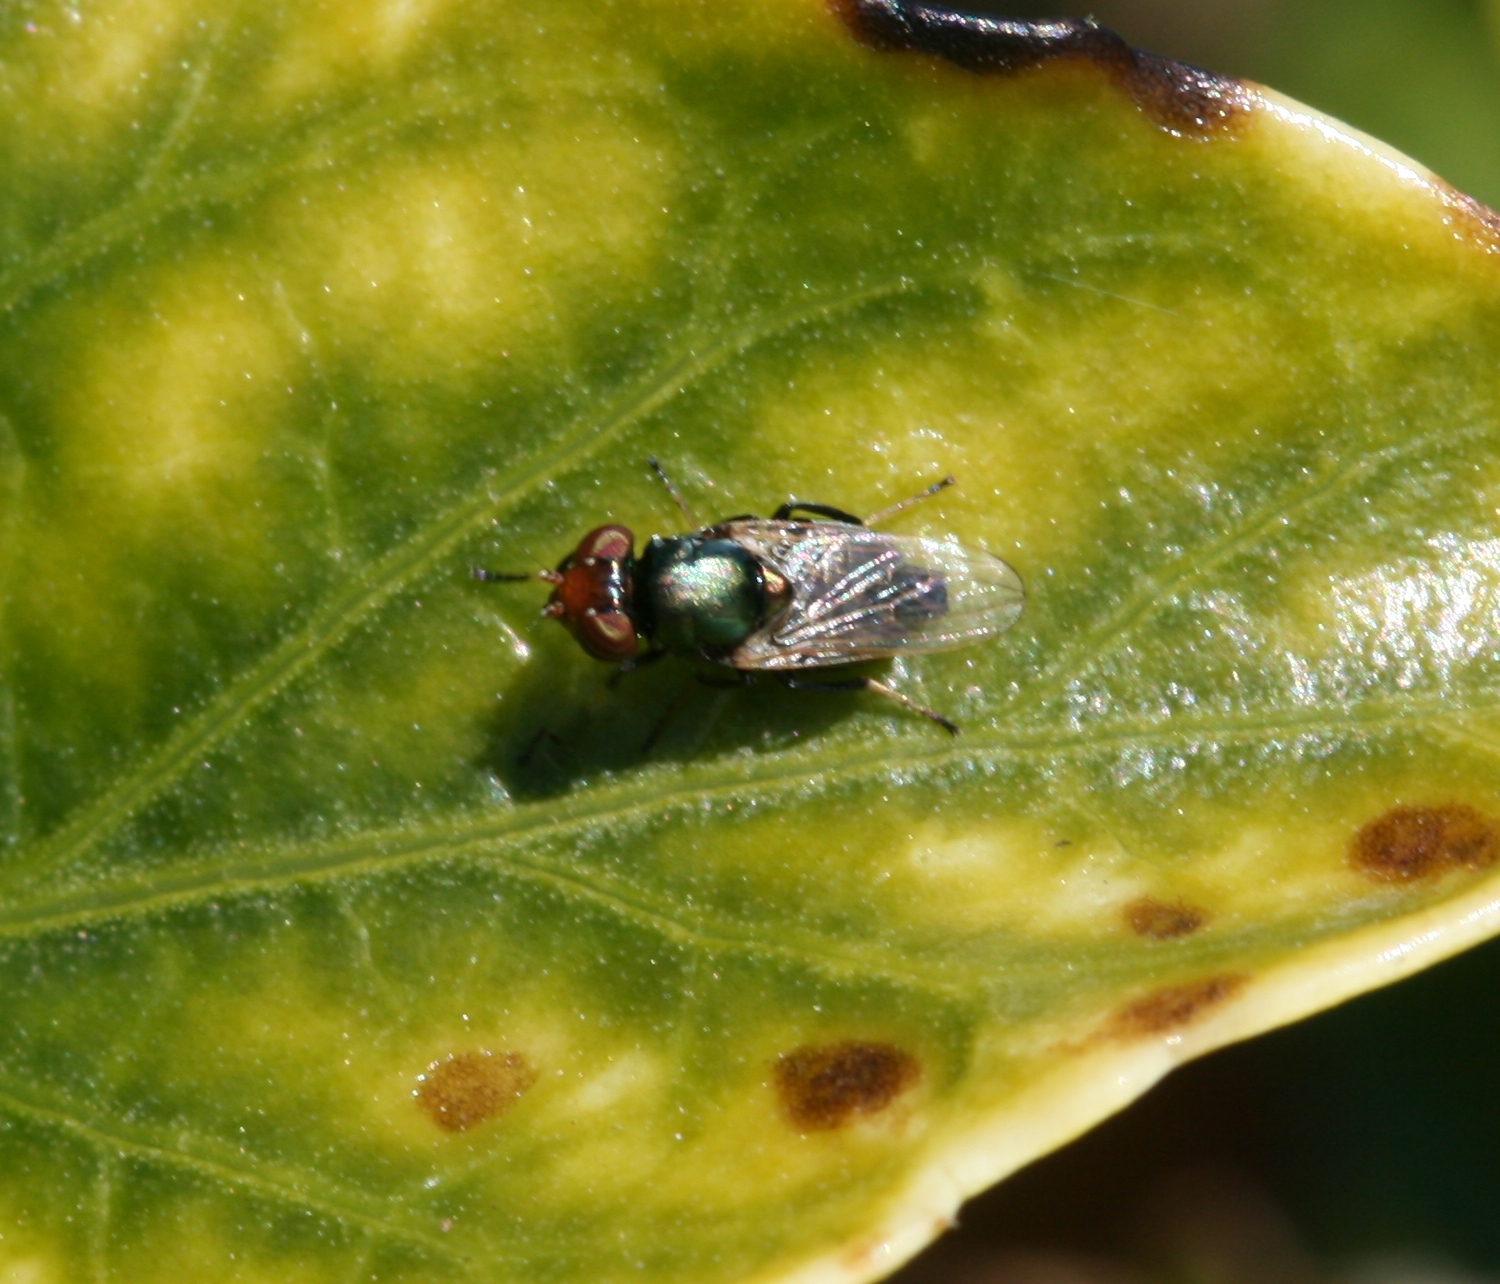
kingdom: Animalia
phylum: Arthropoda
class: Insecta
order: Diptera
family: Ulidiidae
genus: Physiphora
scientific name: Physiphora alceae
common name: Picture-winged fly
